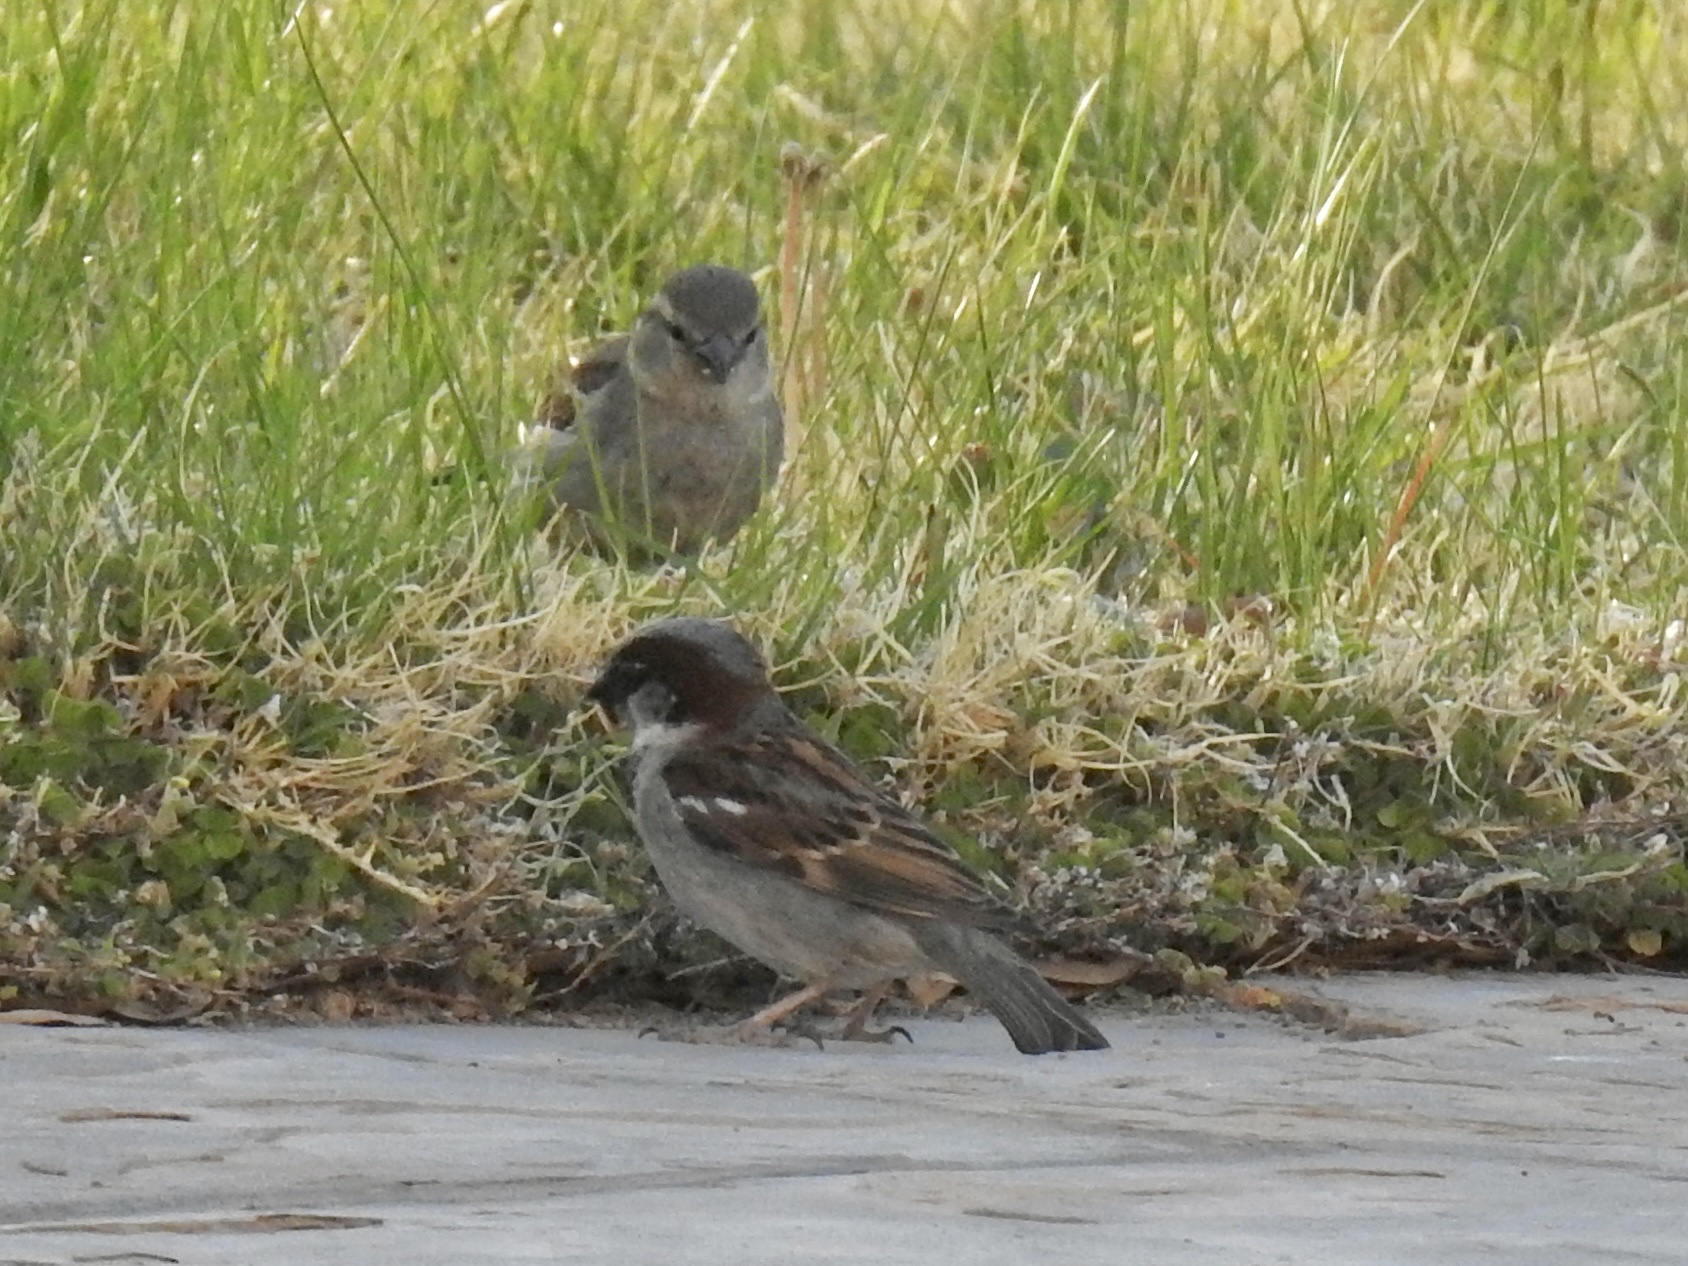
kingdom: Animalia
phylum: Chordata
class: Aves
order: Passeriformes
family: Passeridae
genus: Passer
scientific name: Passer domesticus
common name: House sparrow
